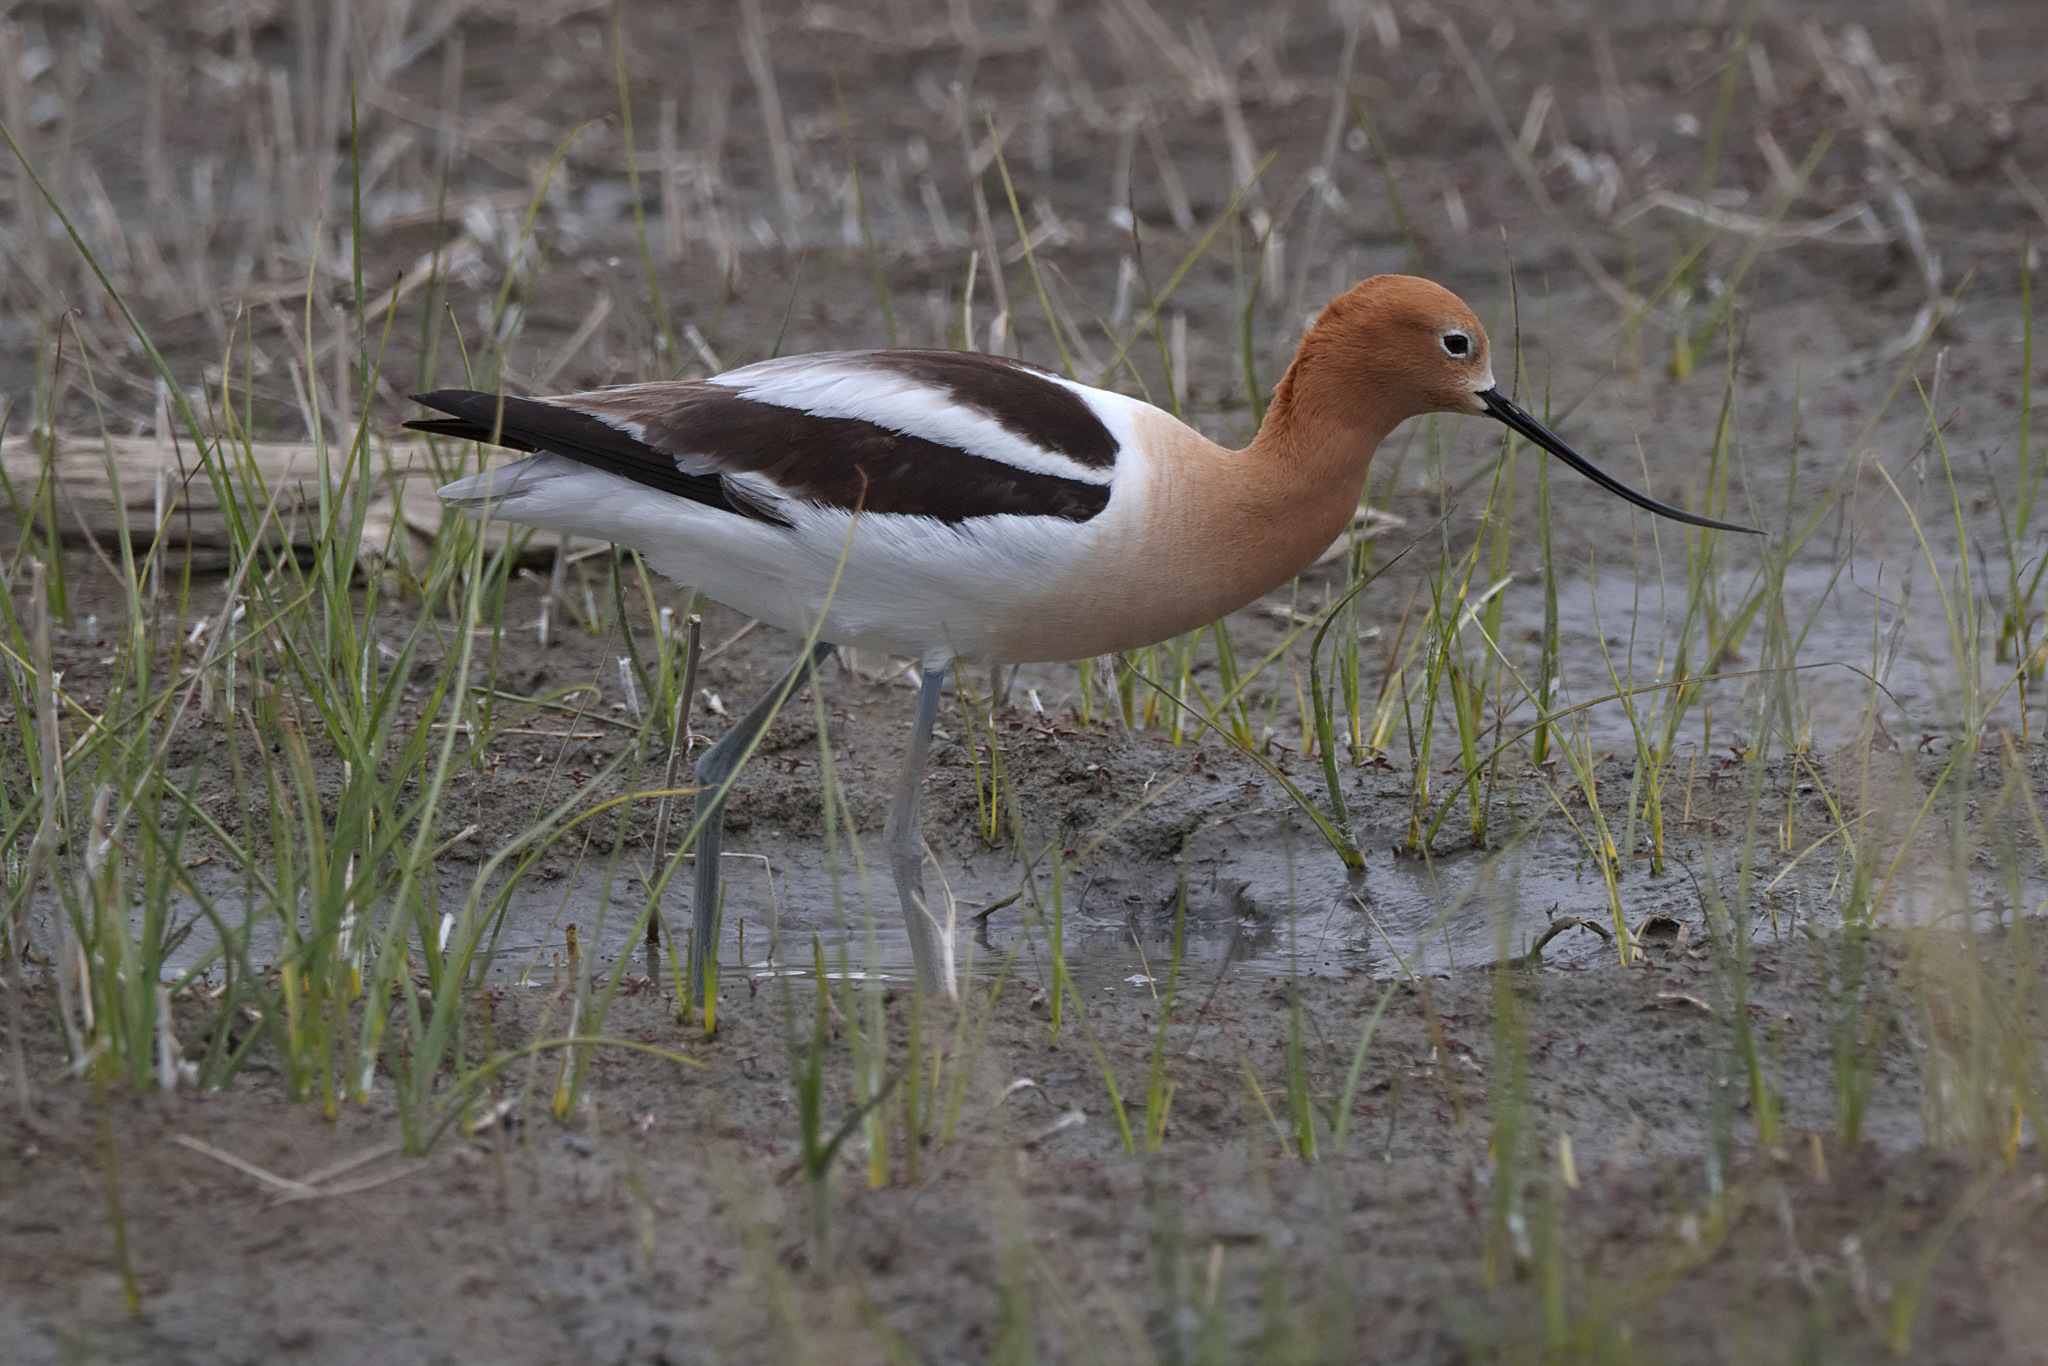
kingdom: Animalia
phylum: Chordata
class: Aves
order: Charadriiformes
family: Recurvirostridae
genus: Recurvirostra
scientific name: Recurvirostra americana
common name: American avocet
